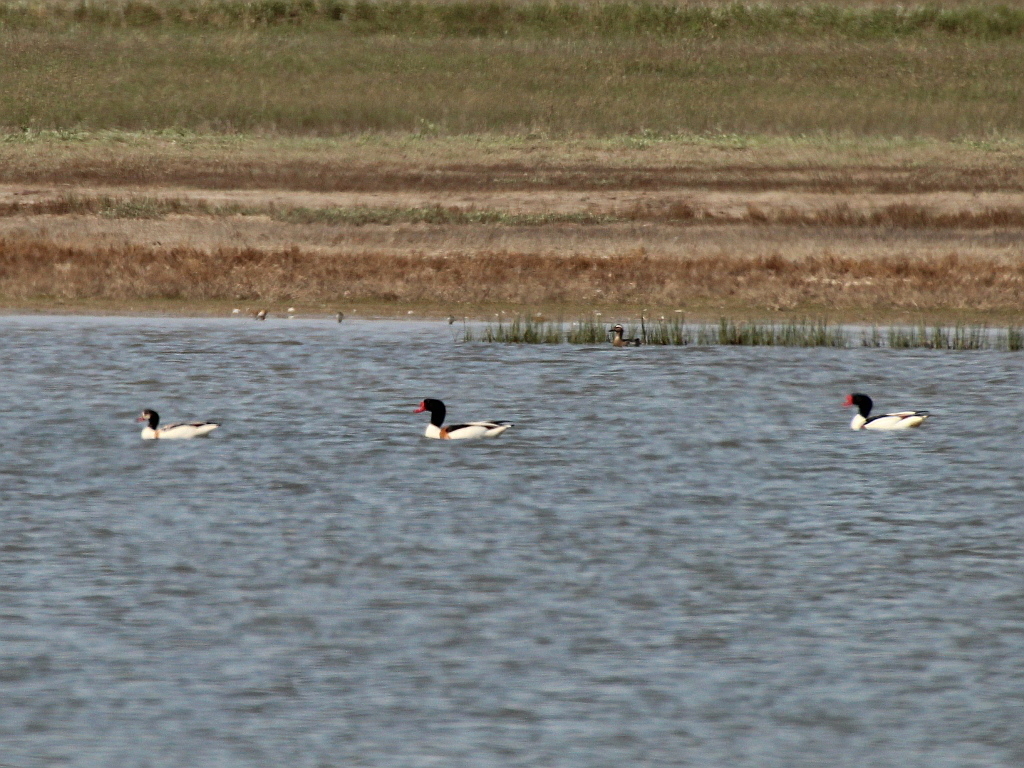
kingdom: Animalia
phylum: Chordata
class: Aves
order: Anseriformes
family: Anatidae
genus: Tadorna
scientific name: Tadorna tadorna
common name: Common shelduck
